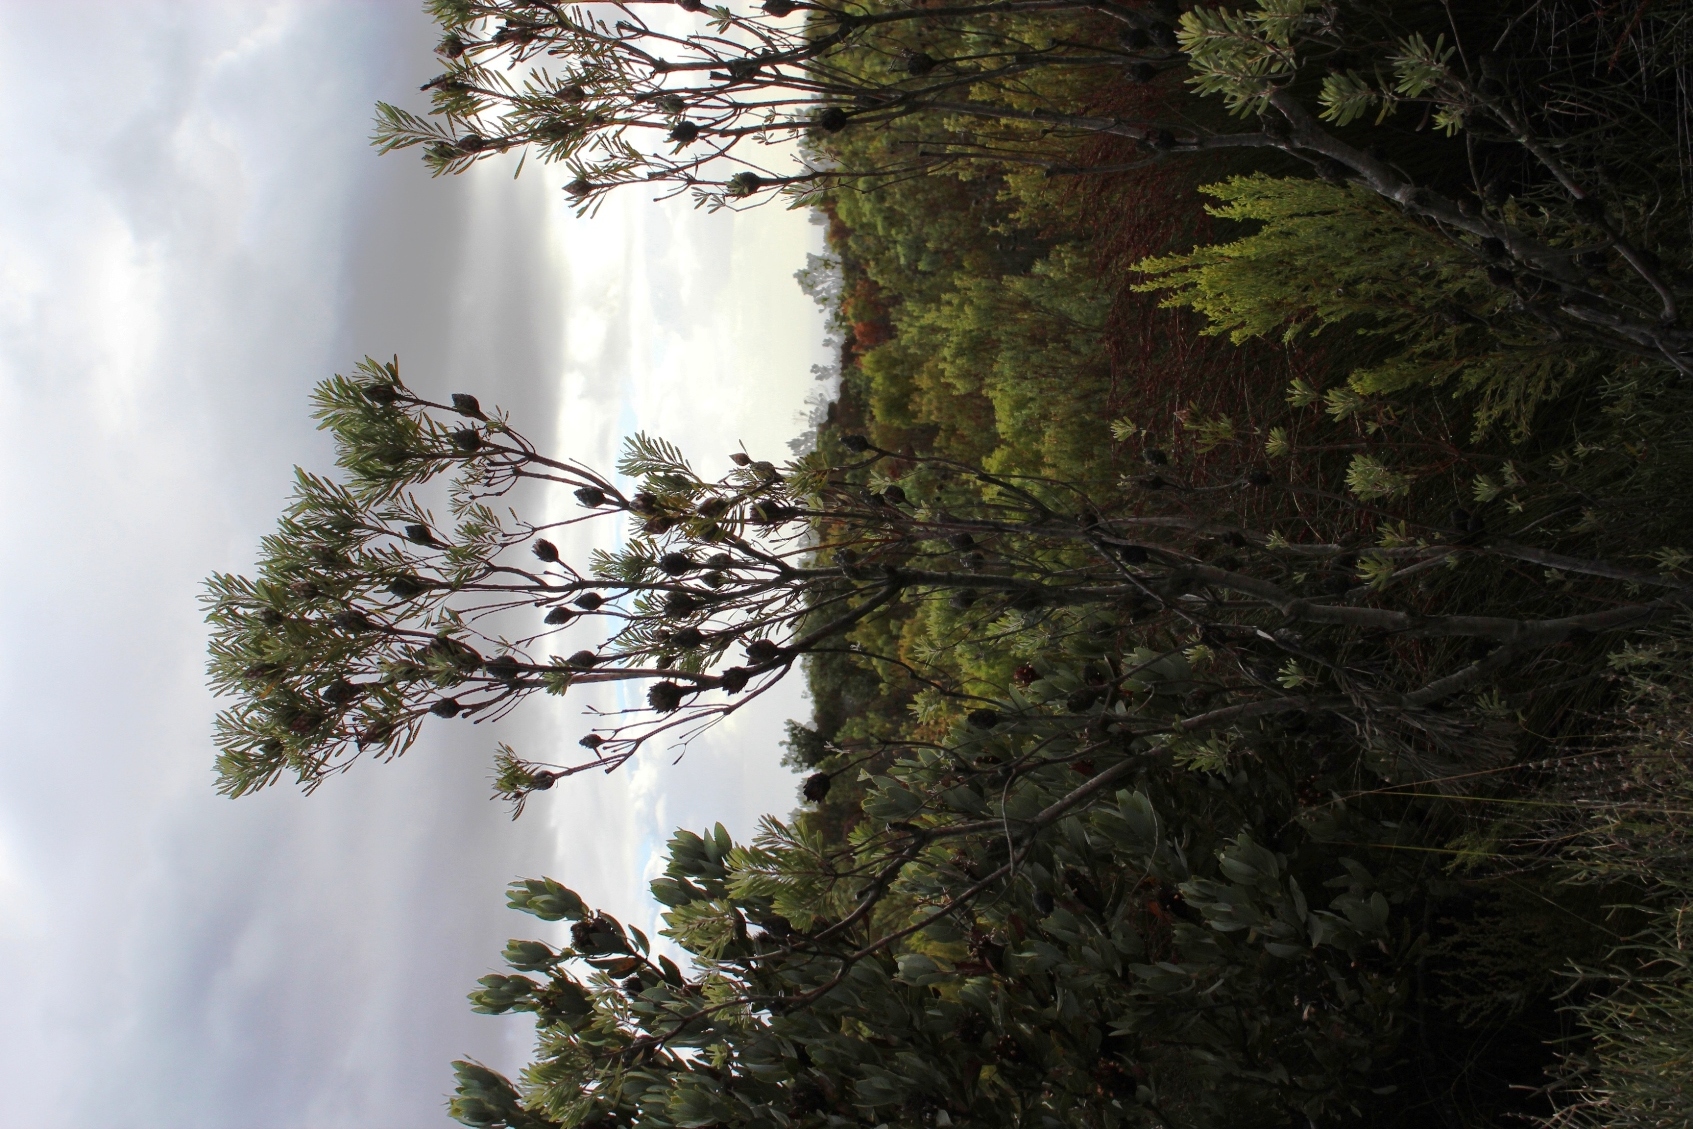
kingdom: Plantae
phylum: Tracheophyta
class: Magnoliopsida
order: Proteales
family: Proteaceae
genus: Leucadendron
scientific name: Leucadendron rubrum
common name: Spinning top
